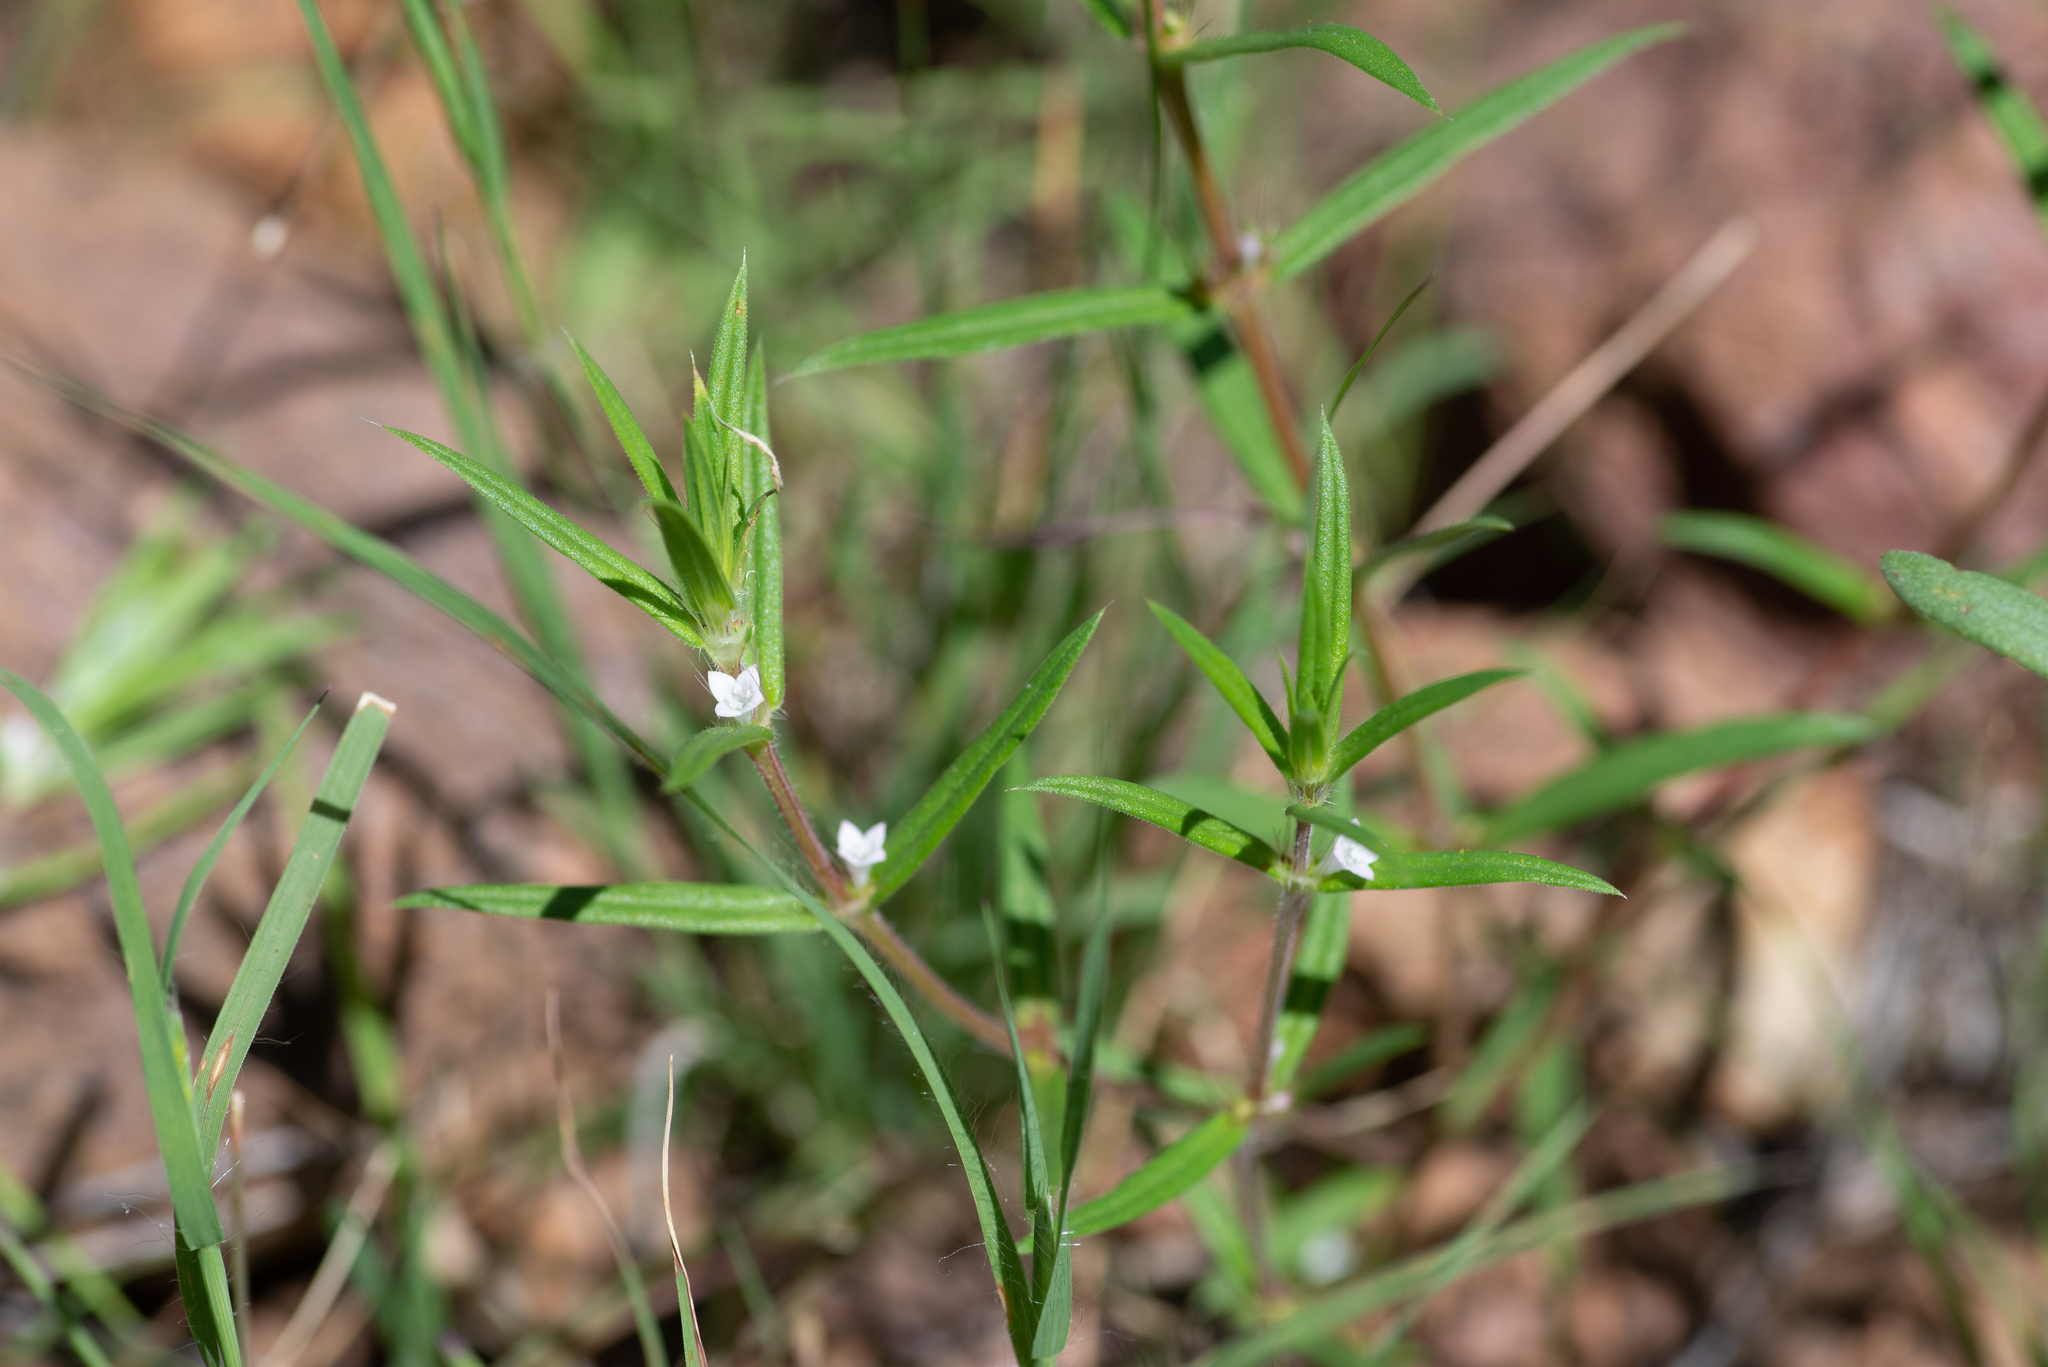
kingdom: Plantae
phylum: Tracheophyta
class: Magnoliopsida
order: Gentianales
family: Rubiaceae
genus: Hexasepalum
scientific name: Hexasepalum teres
